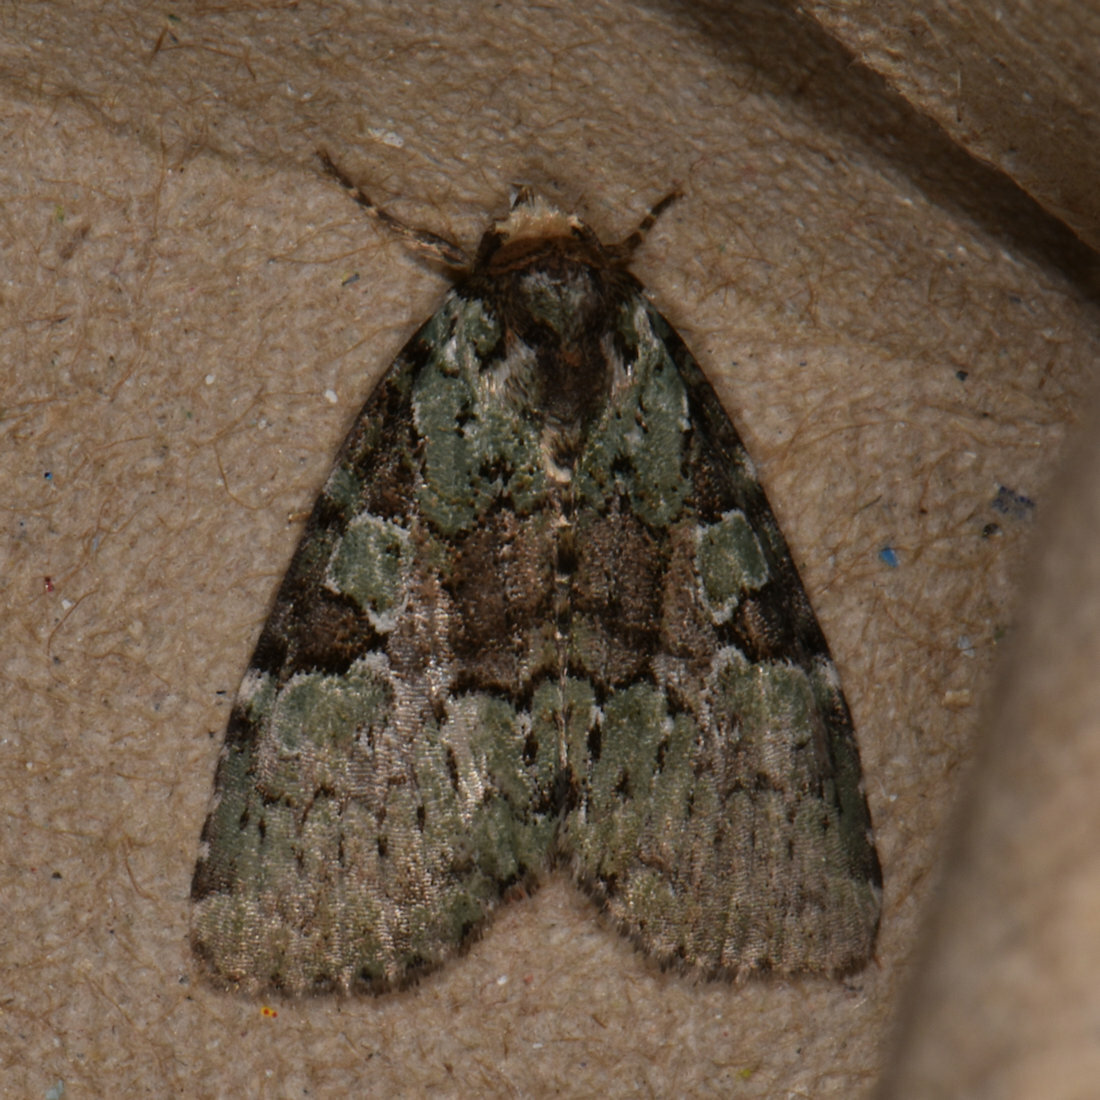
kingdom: Animalia
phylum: Arthropoda
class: Insecta
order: Lepidoptera
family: Noctuidae
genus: Leuconycta
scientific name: Leuconycta lepidula
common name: Marbled-green leuconycta moth
